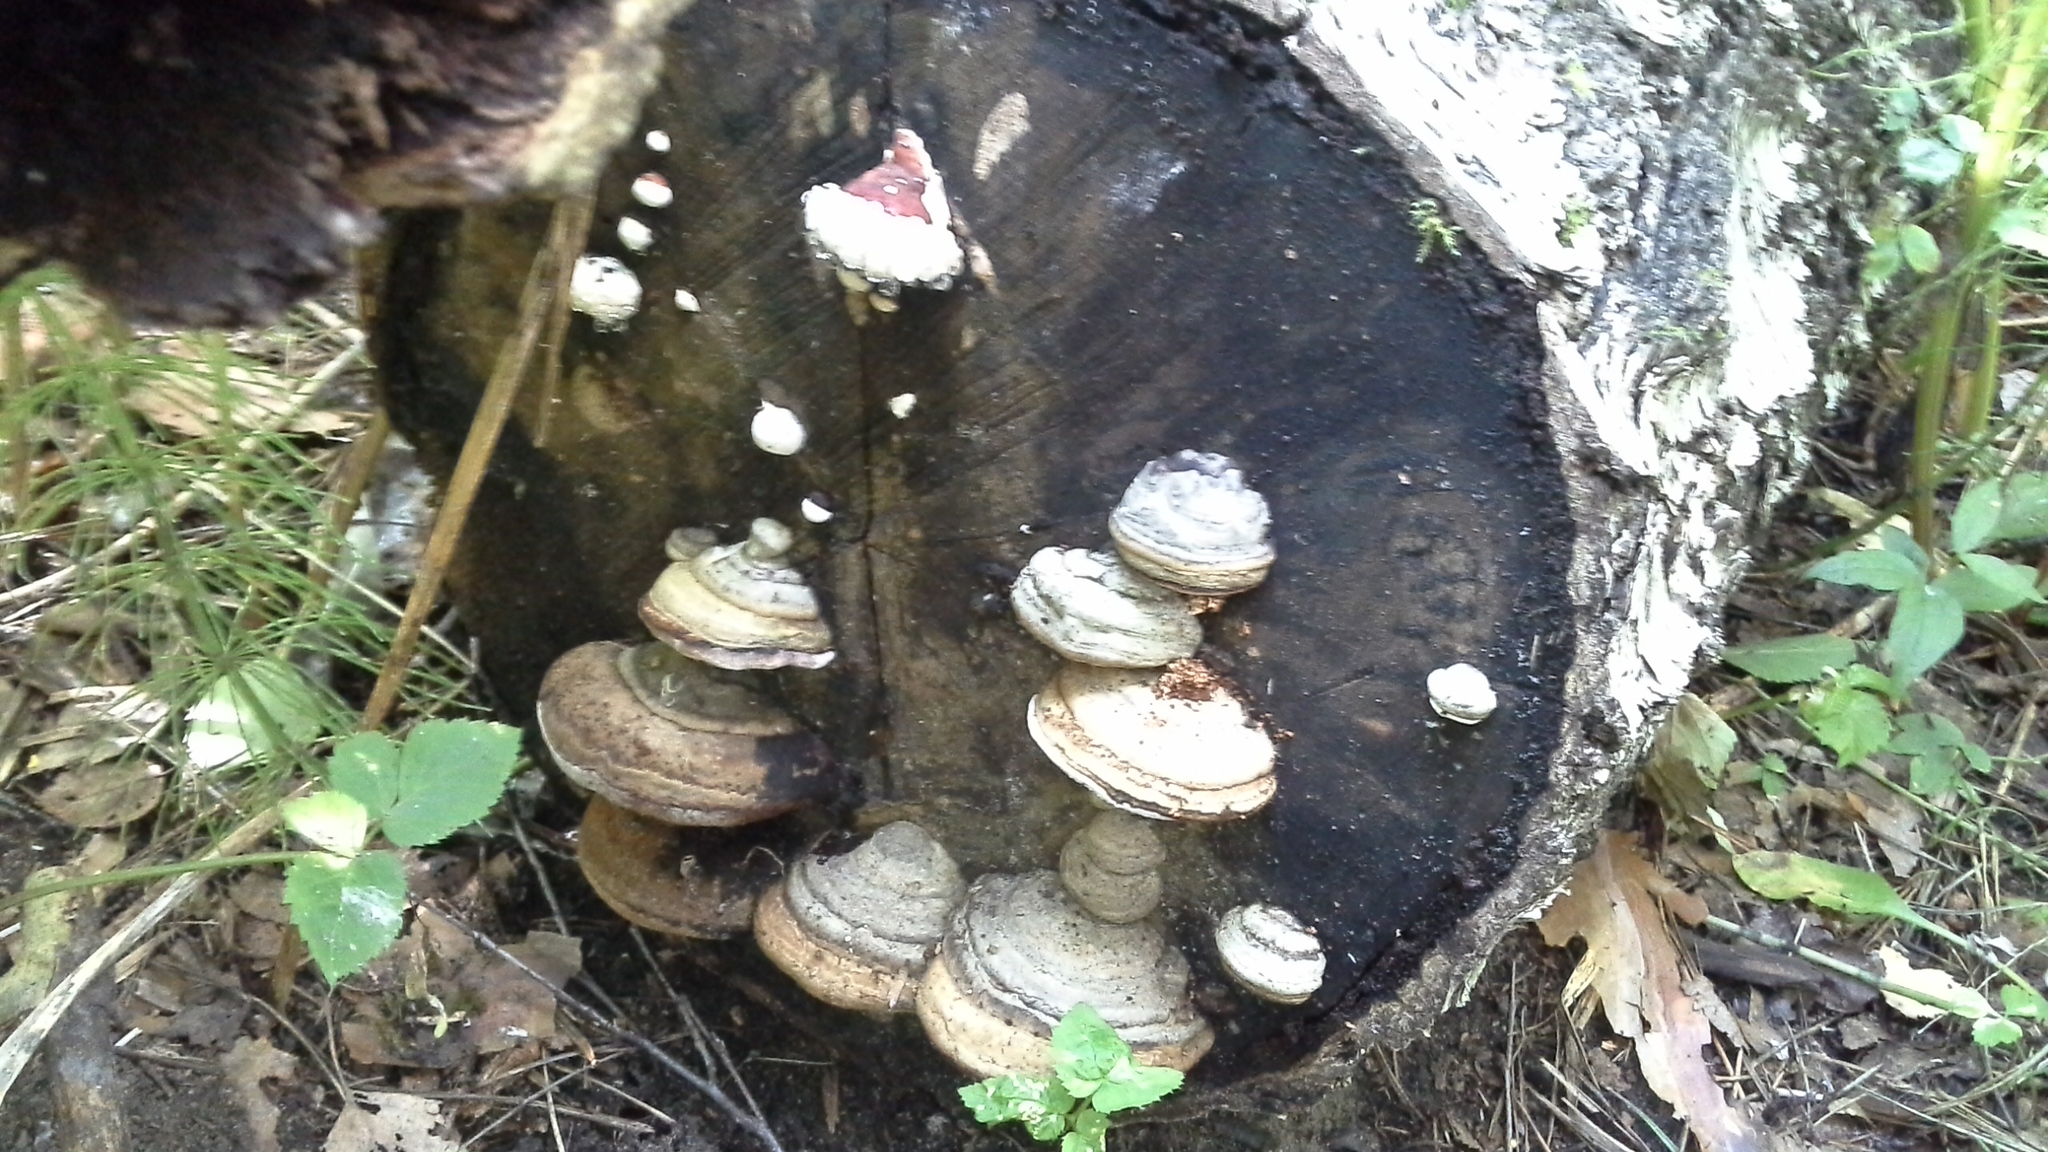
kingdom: Fungi
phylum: Basidiomycota
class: Agaricomycetes
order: Polyporales
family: Fomitopsidaceae
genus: Fomitopsis
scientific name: Fomitopsis pinicola
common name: Red-belted bracket
